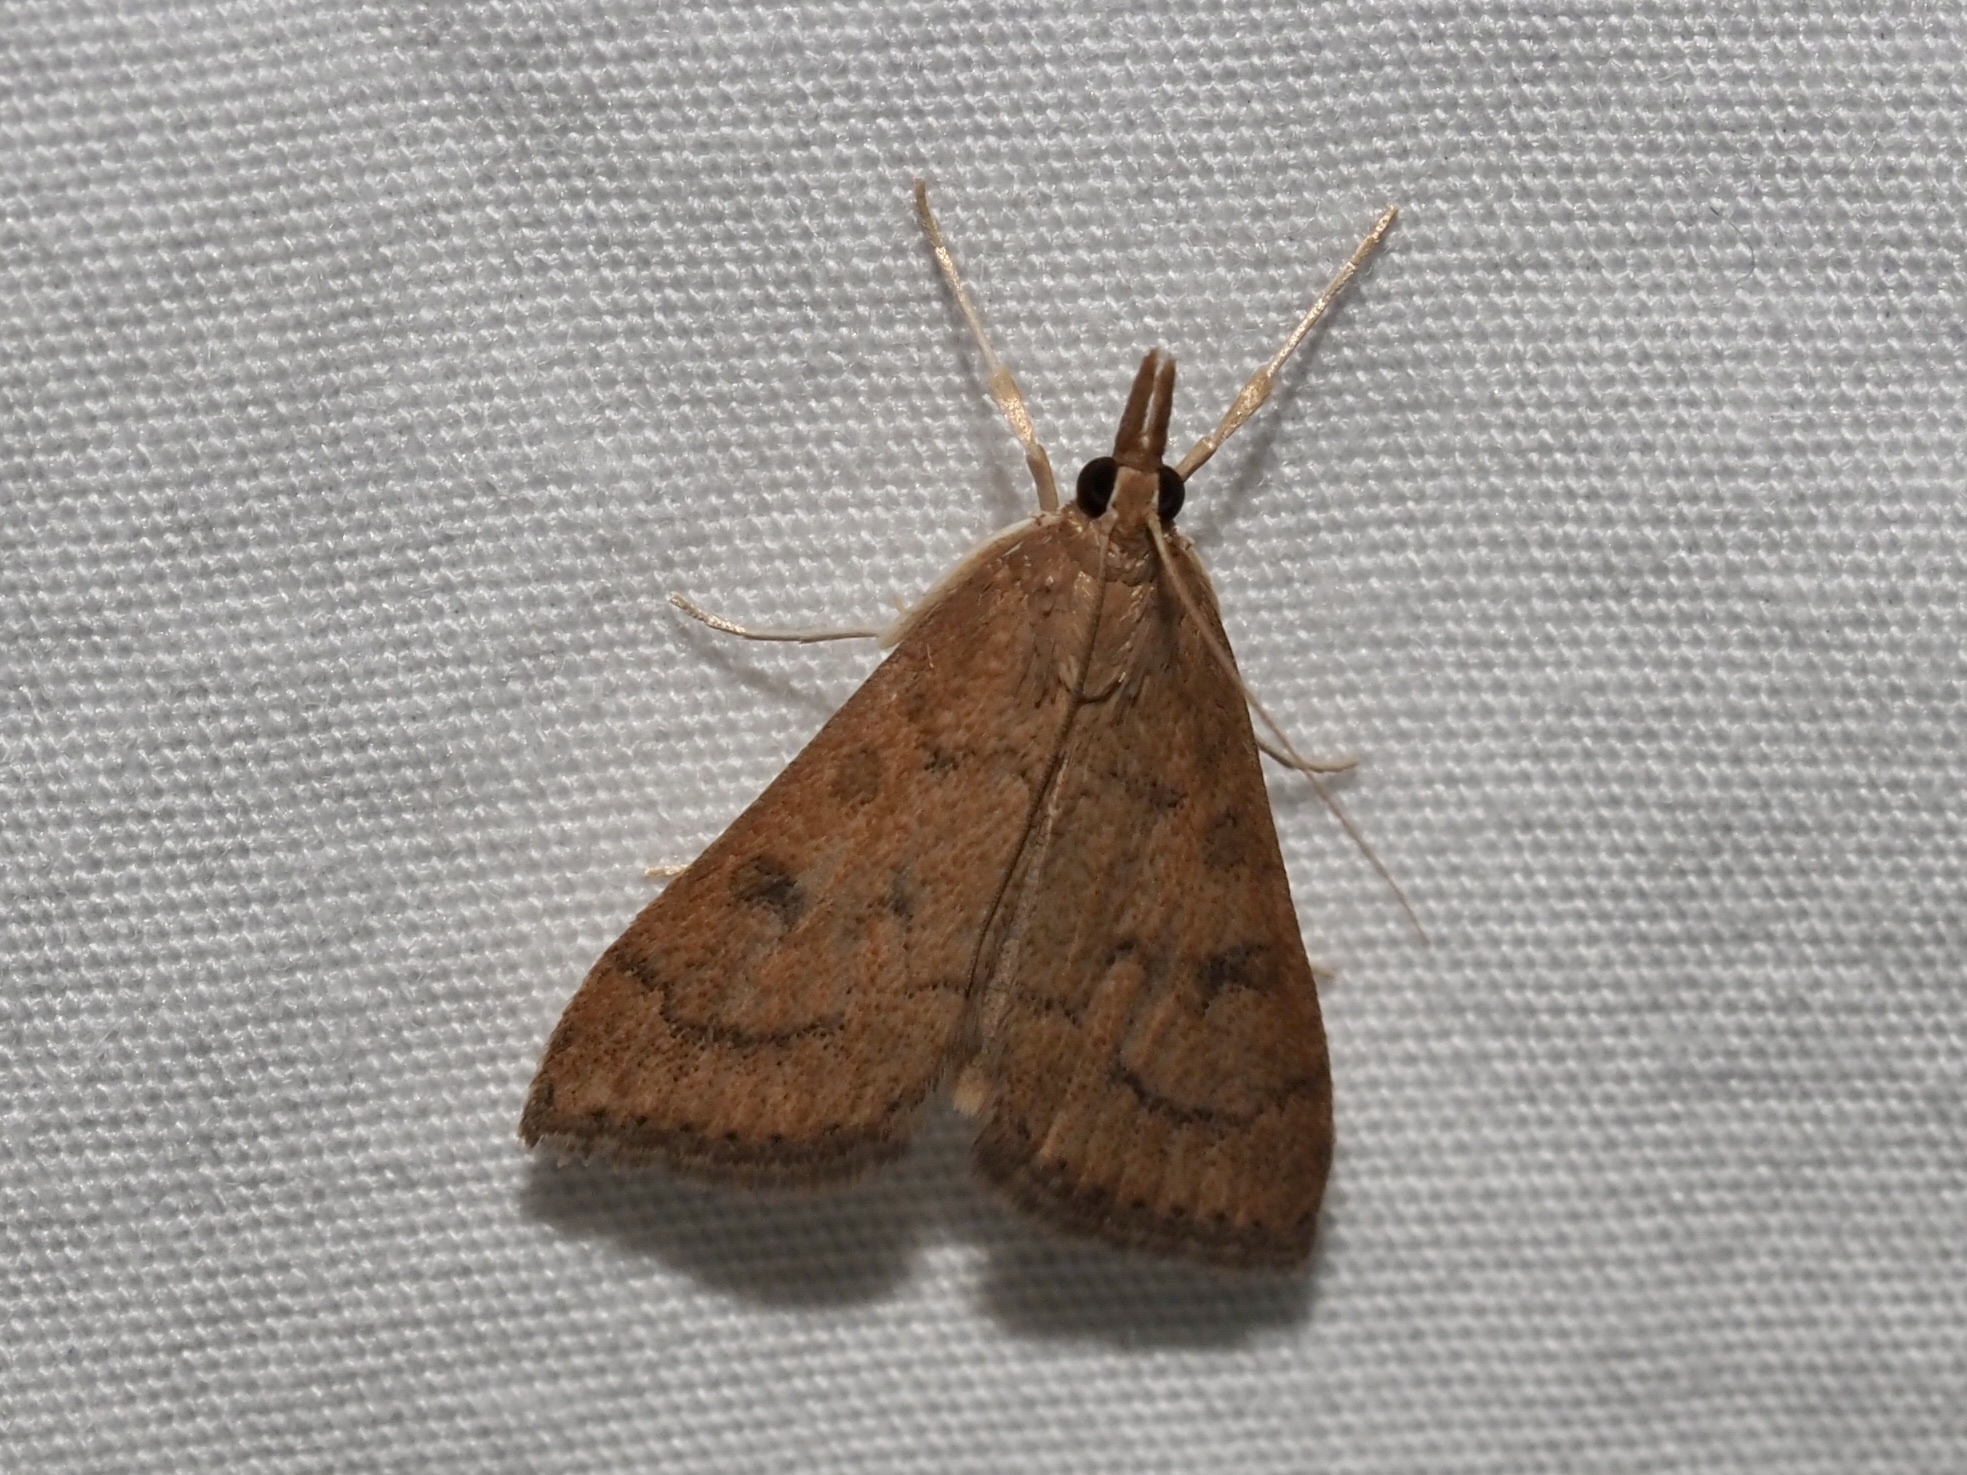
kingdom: Animalia
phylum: Arthropoda
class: Insecta
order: Lepidoptera
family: Crambidae
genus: Udea
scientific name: Udea rubigalis
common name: Celery leaftier moth
